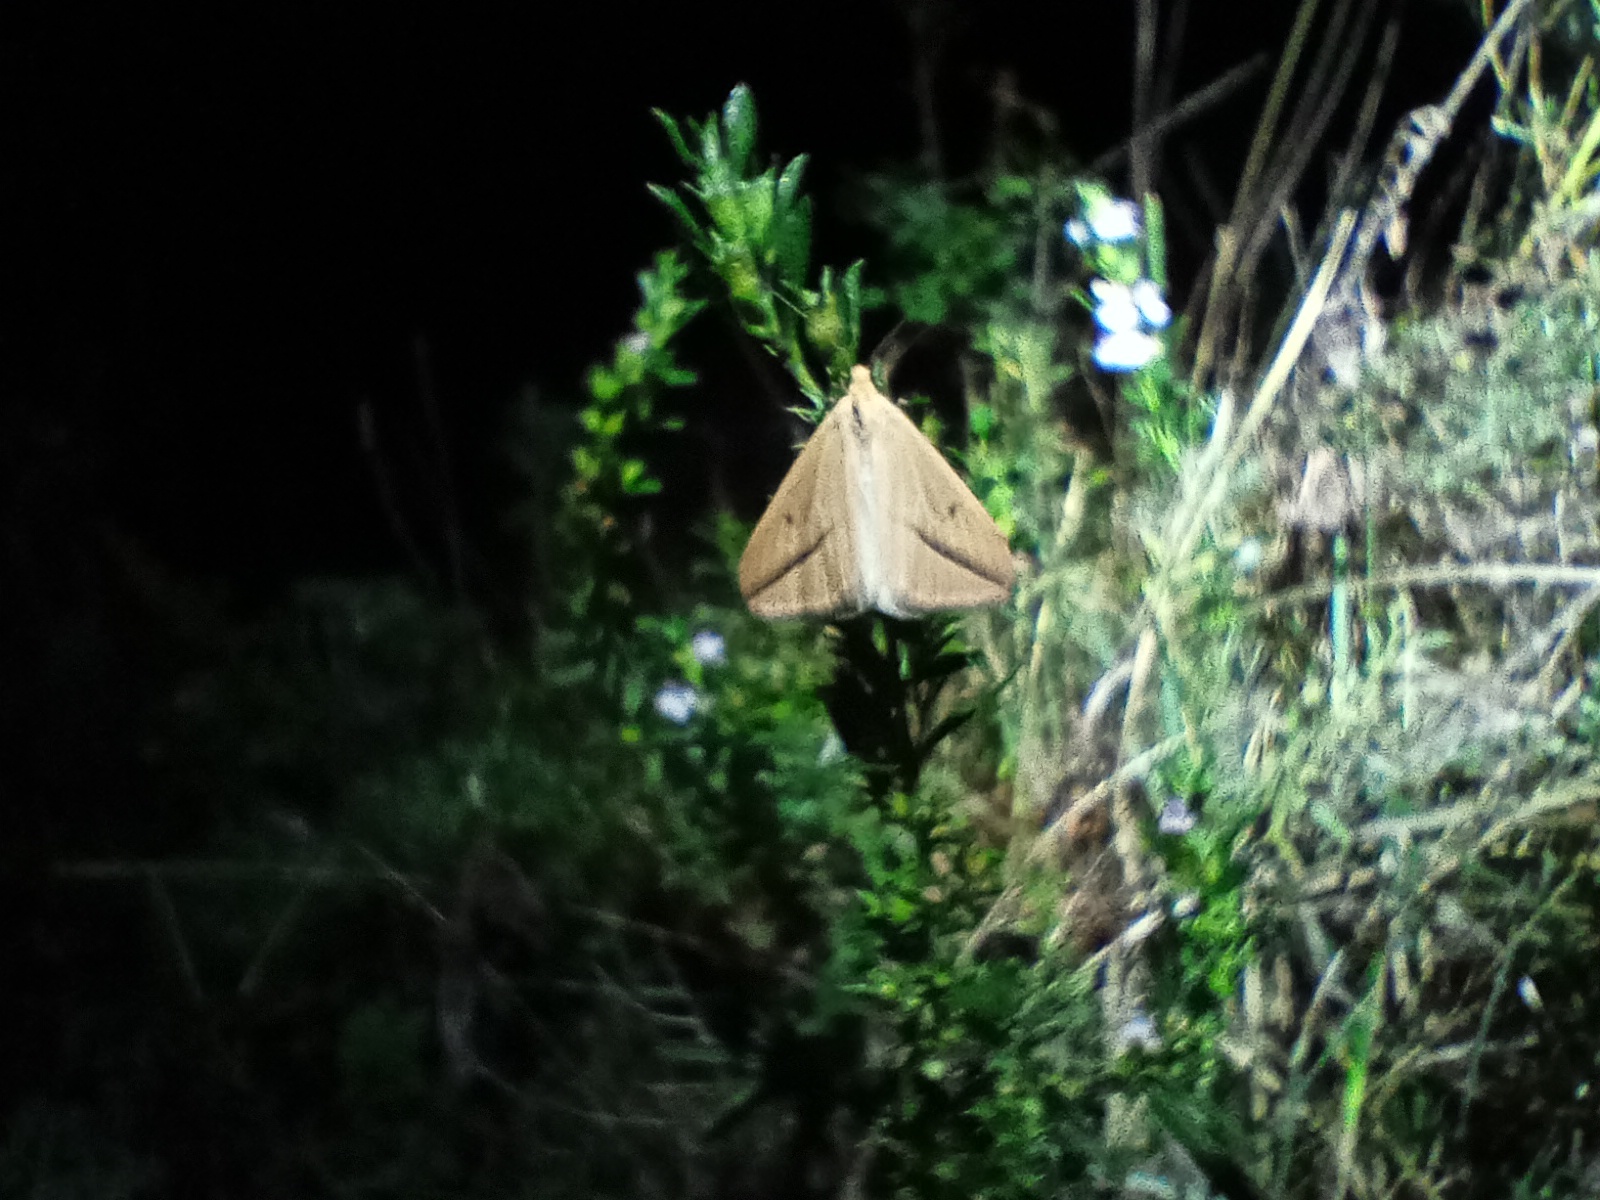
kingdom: Animalia
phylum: Arthropoda
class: Insecta
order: Lepidoptera
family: Geometridae
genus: Rhodometra
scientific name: Rhodometra sacraria
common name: Vestal
